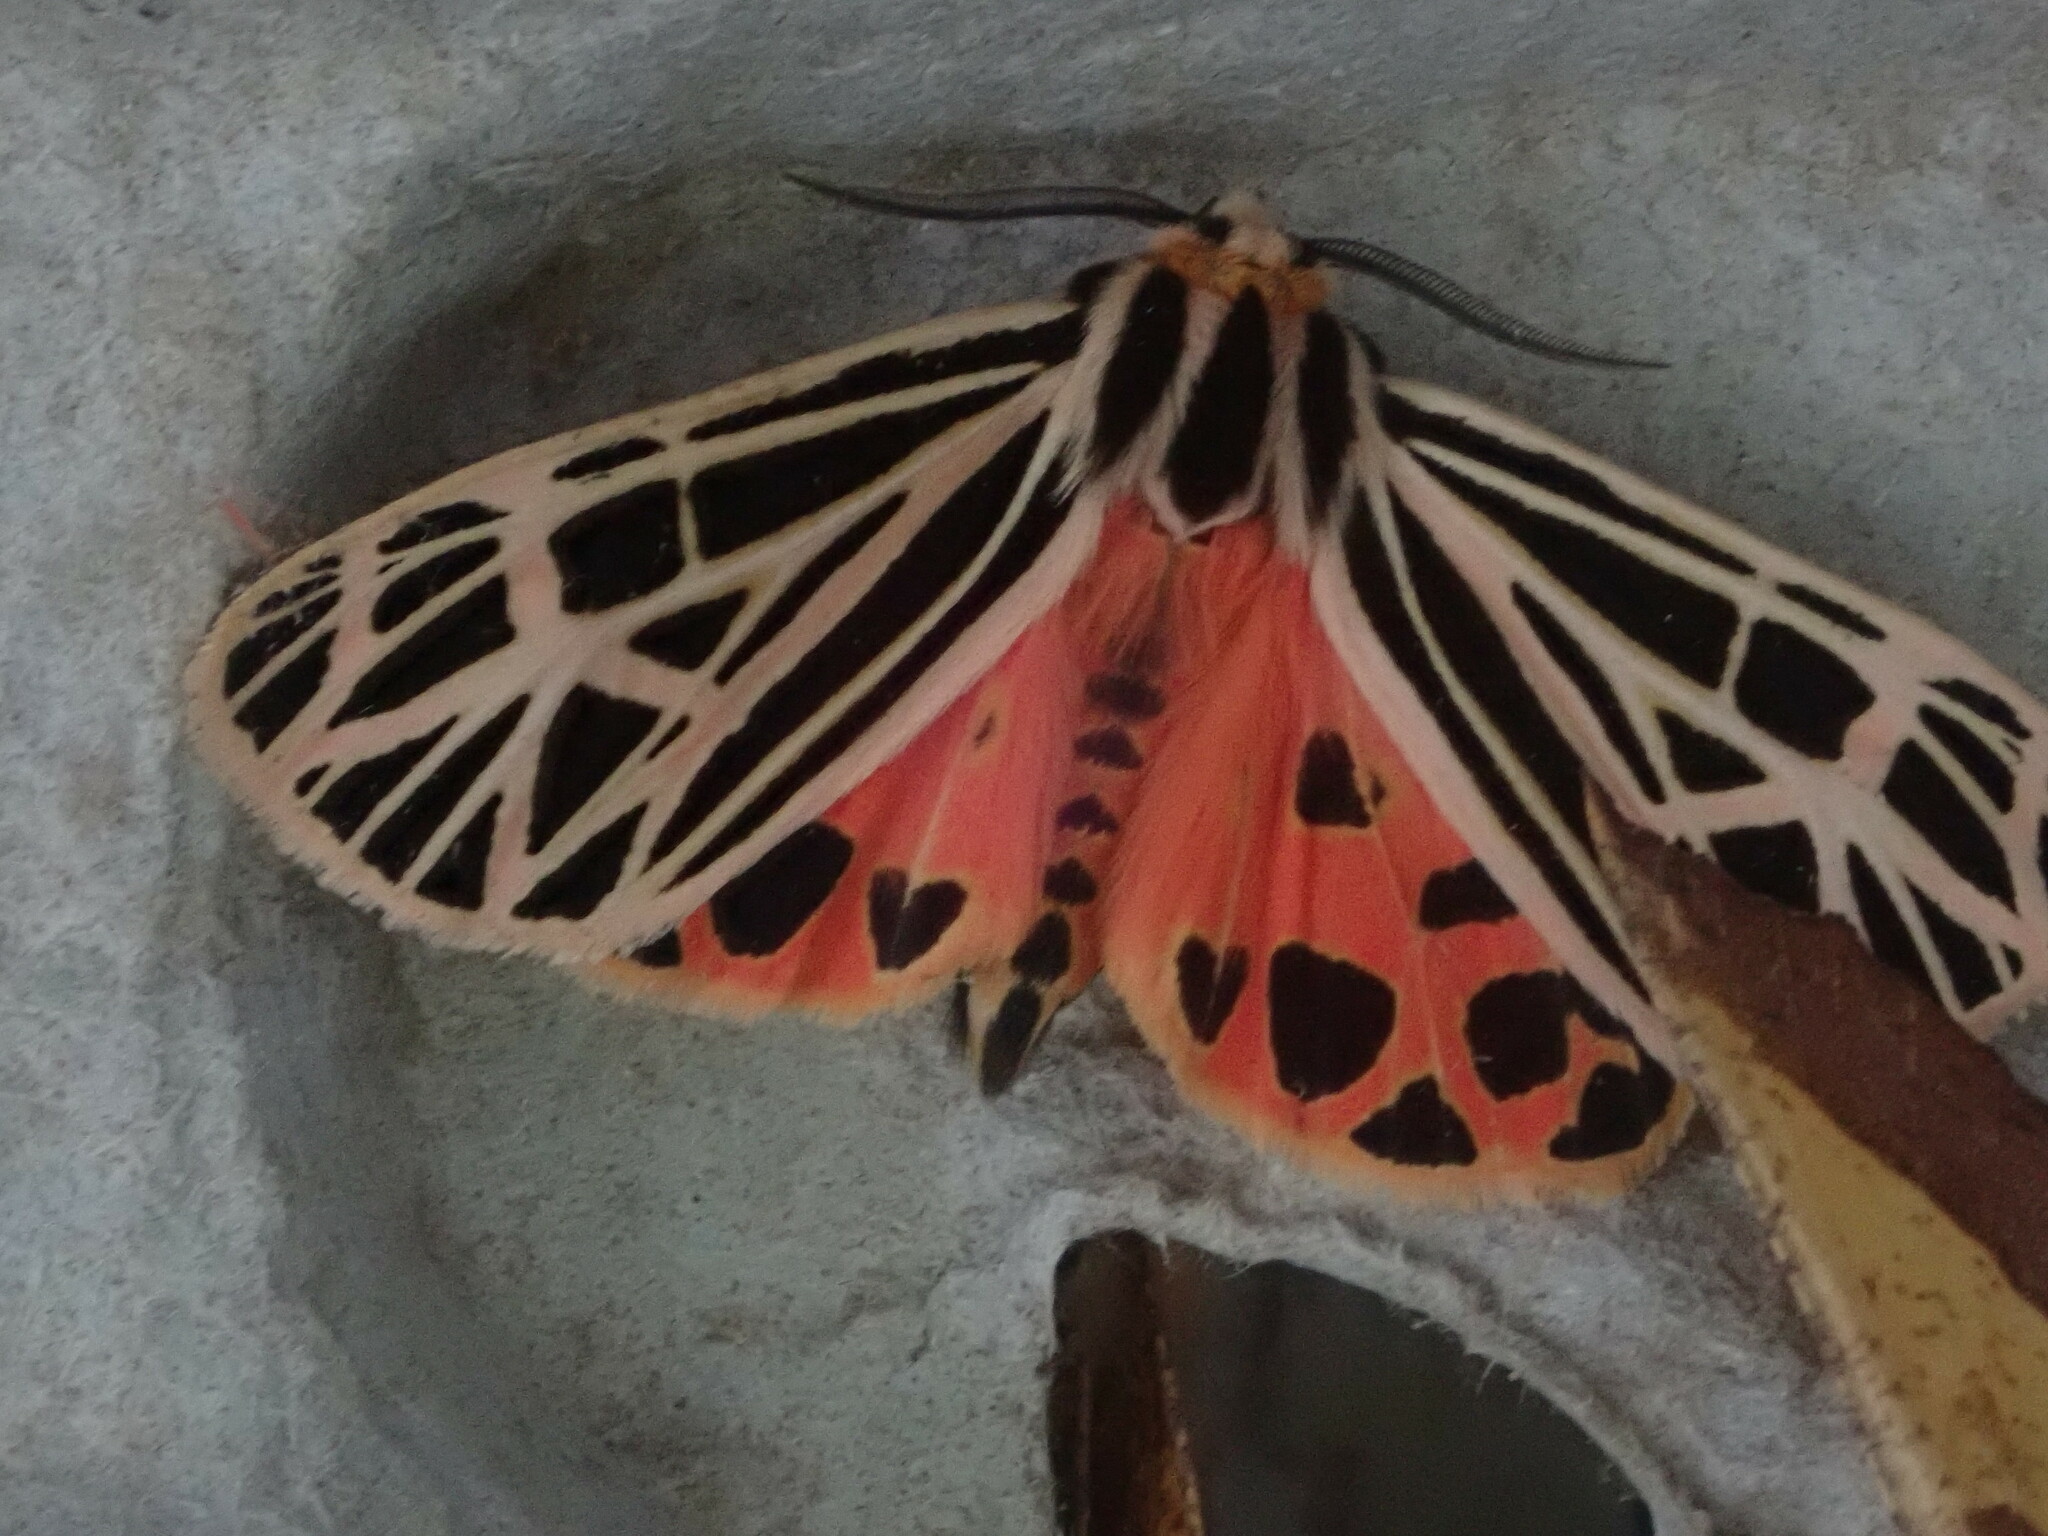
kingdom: Animalia
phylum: Arthropoda
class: Insecta
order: Lepidoptera
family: Erebidae
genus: Grammia
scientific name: Grammia virgo
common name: Virgin tiger moth
